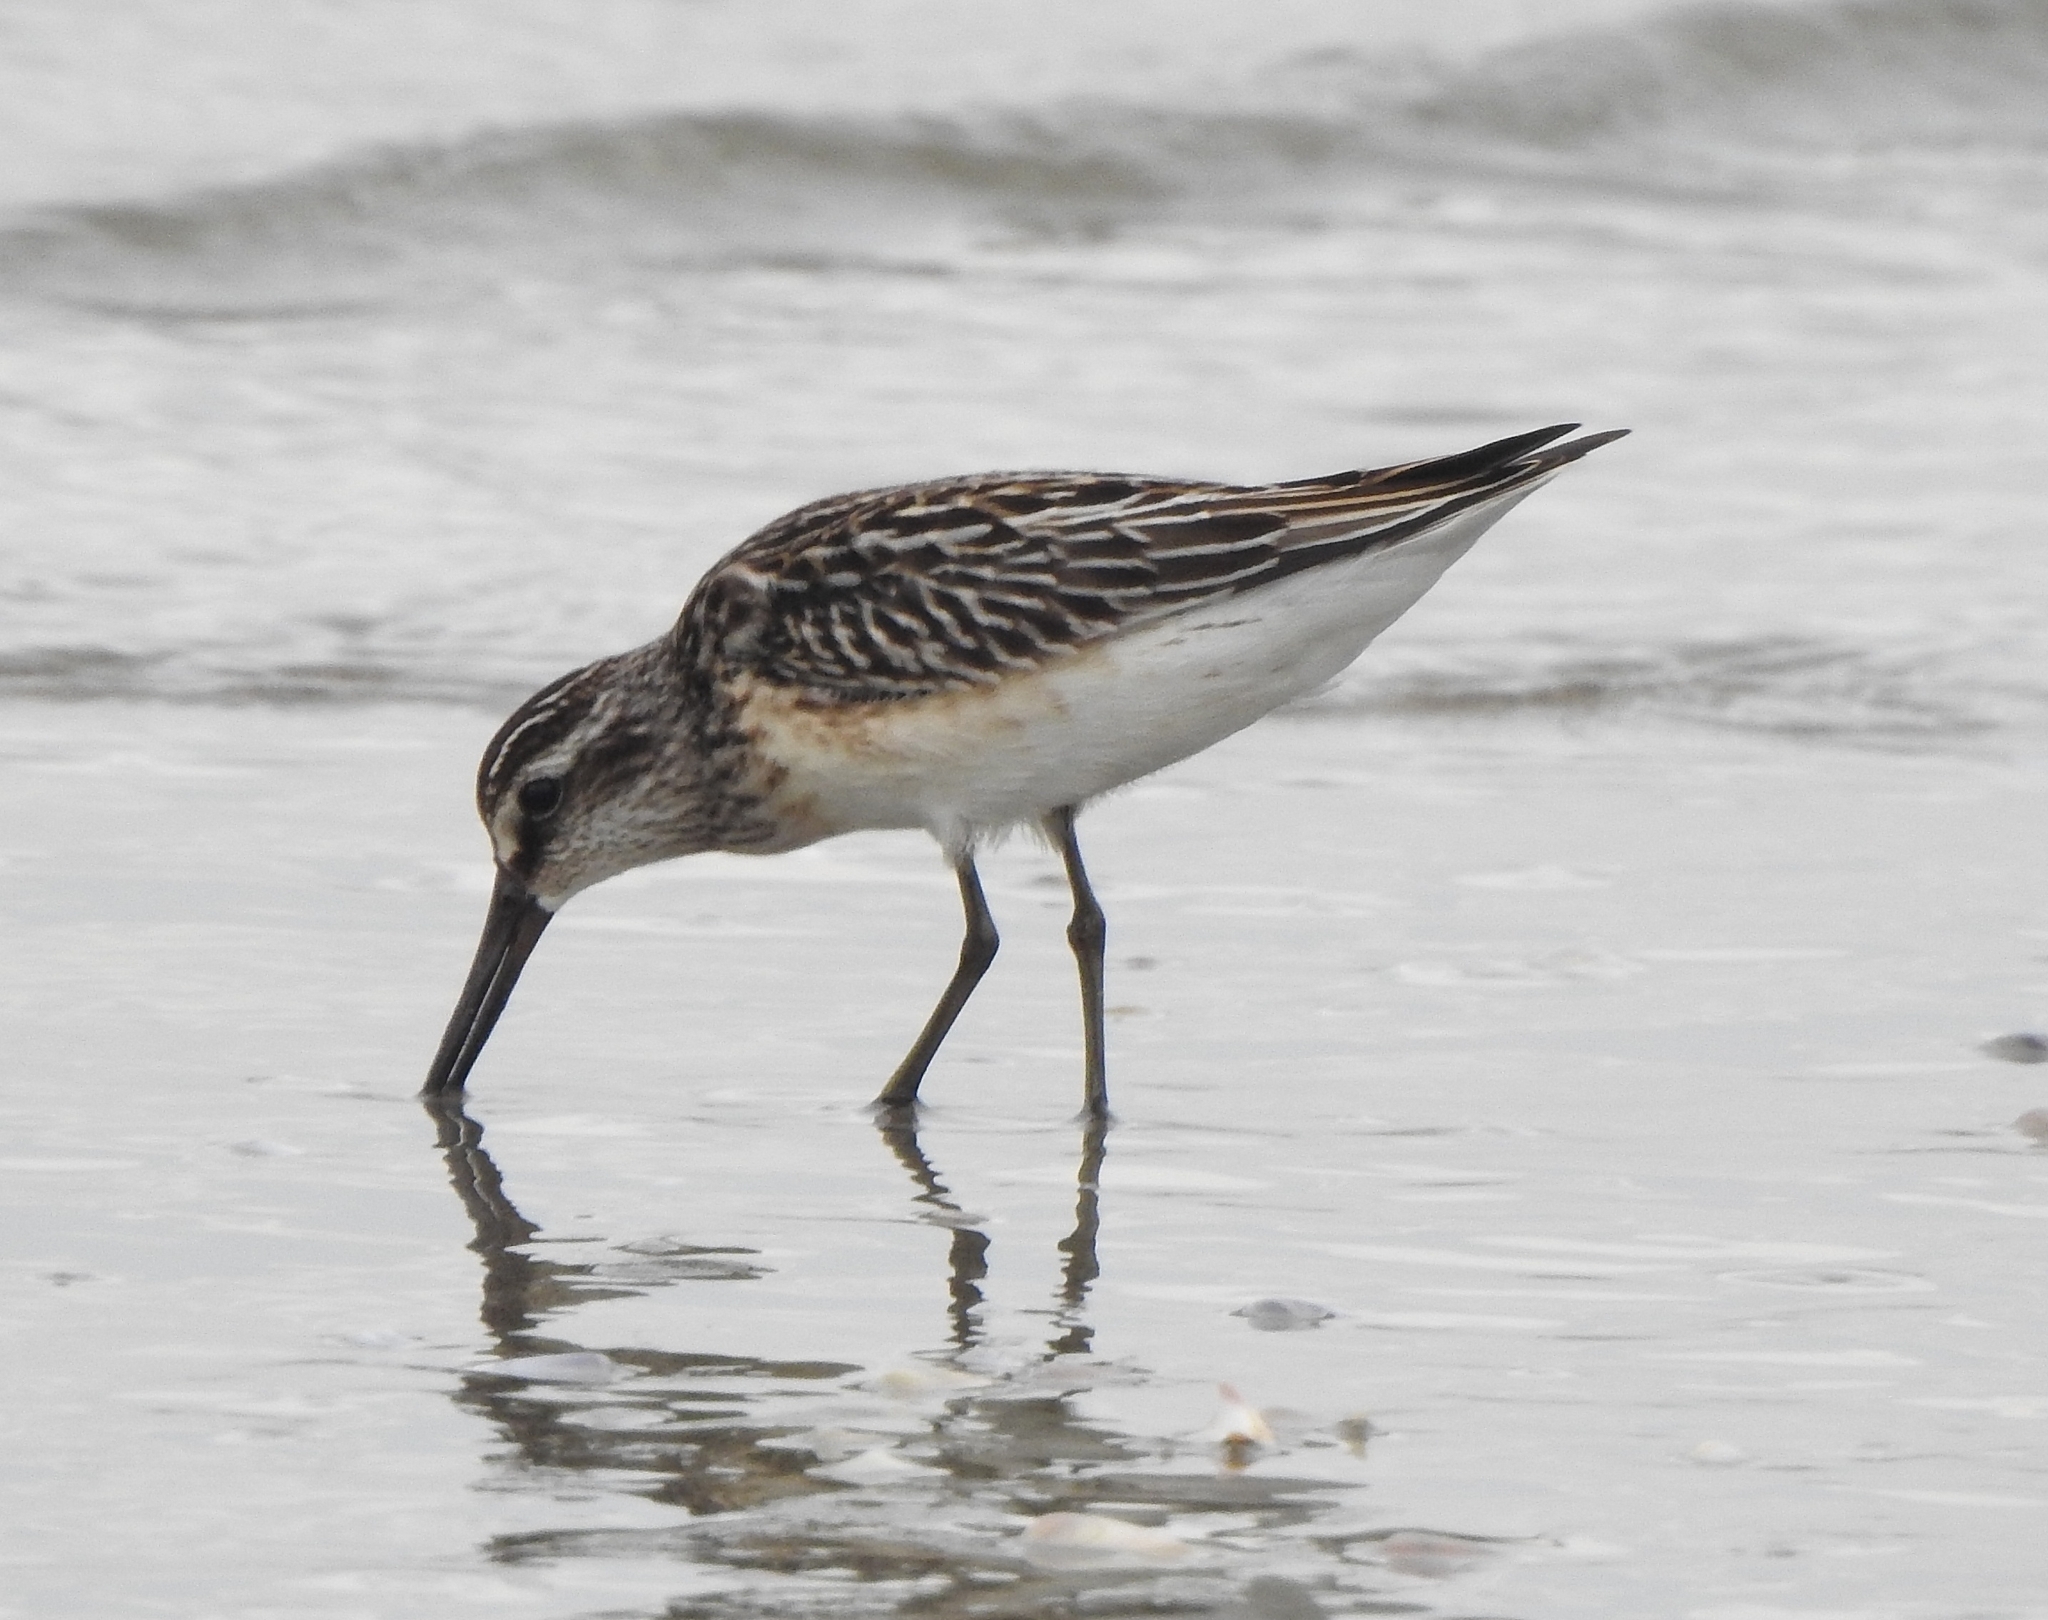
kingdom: Animalia
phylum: Chordata
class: Aves
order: Charadriiformes
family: Scolopacidae
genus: Calidris
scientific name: Calidris falcinellus
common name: Broad-billed sandpiper
